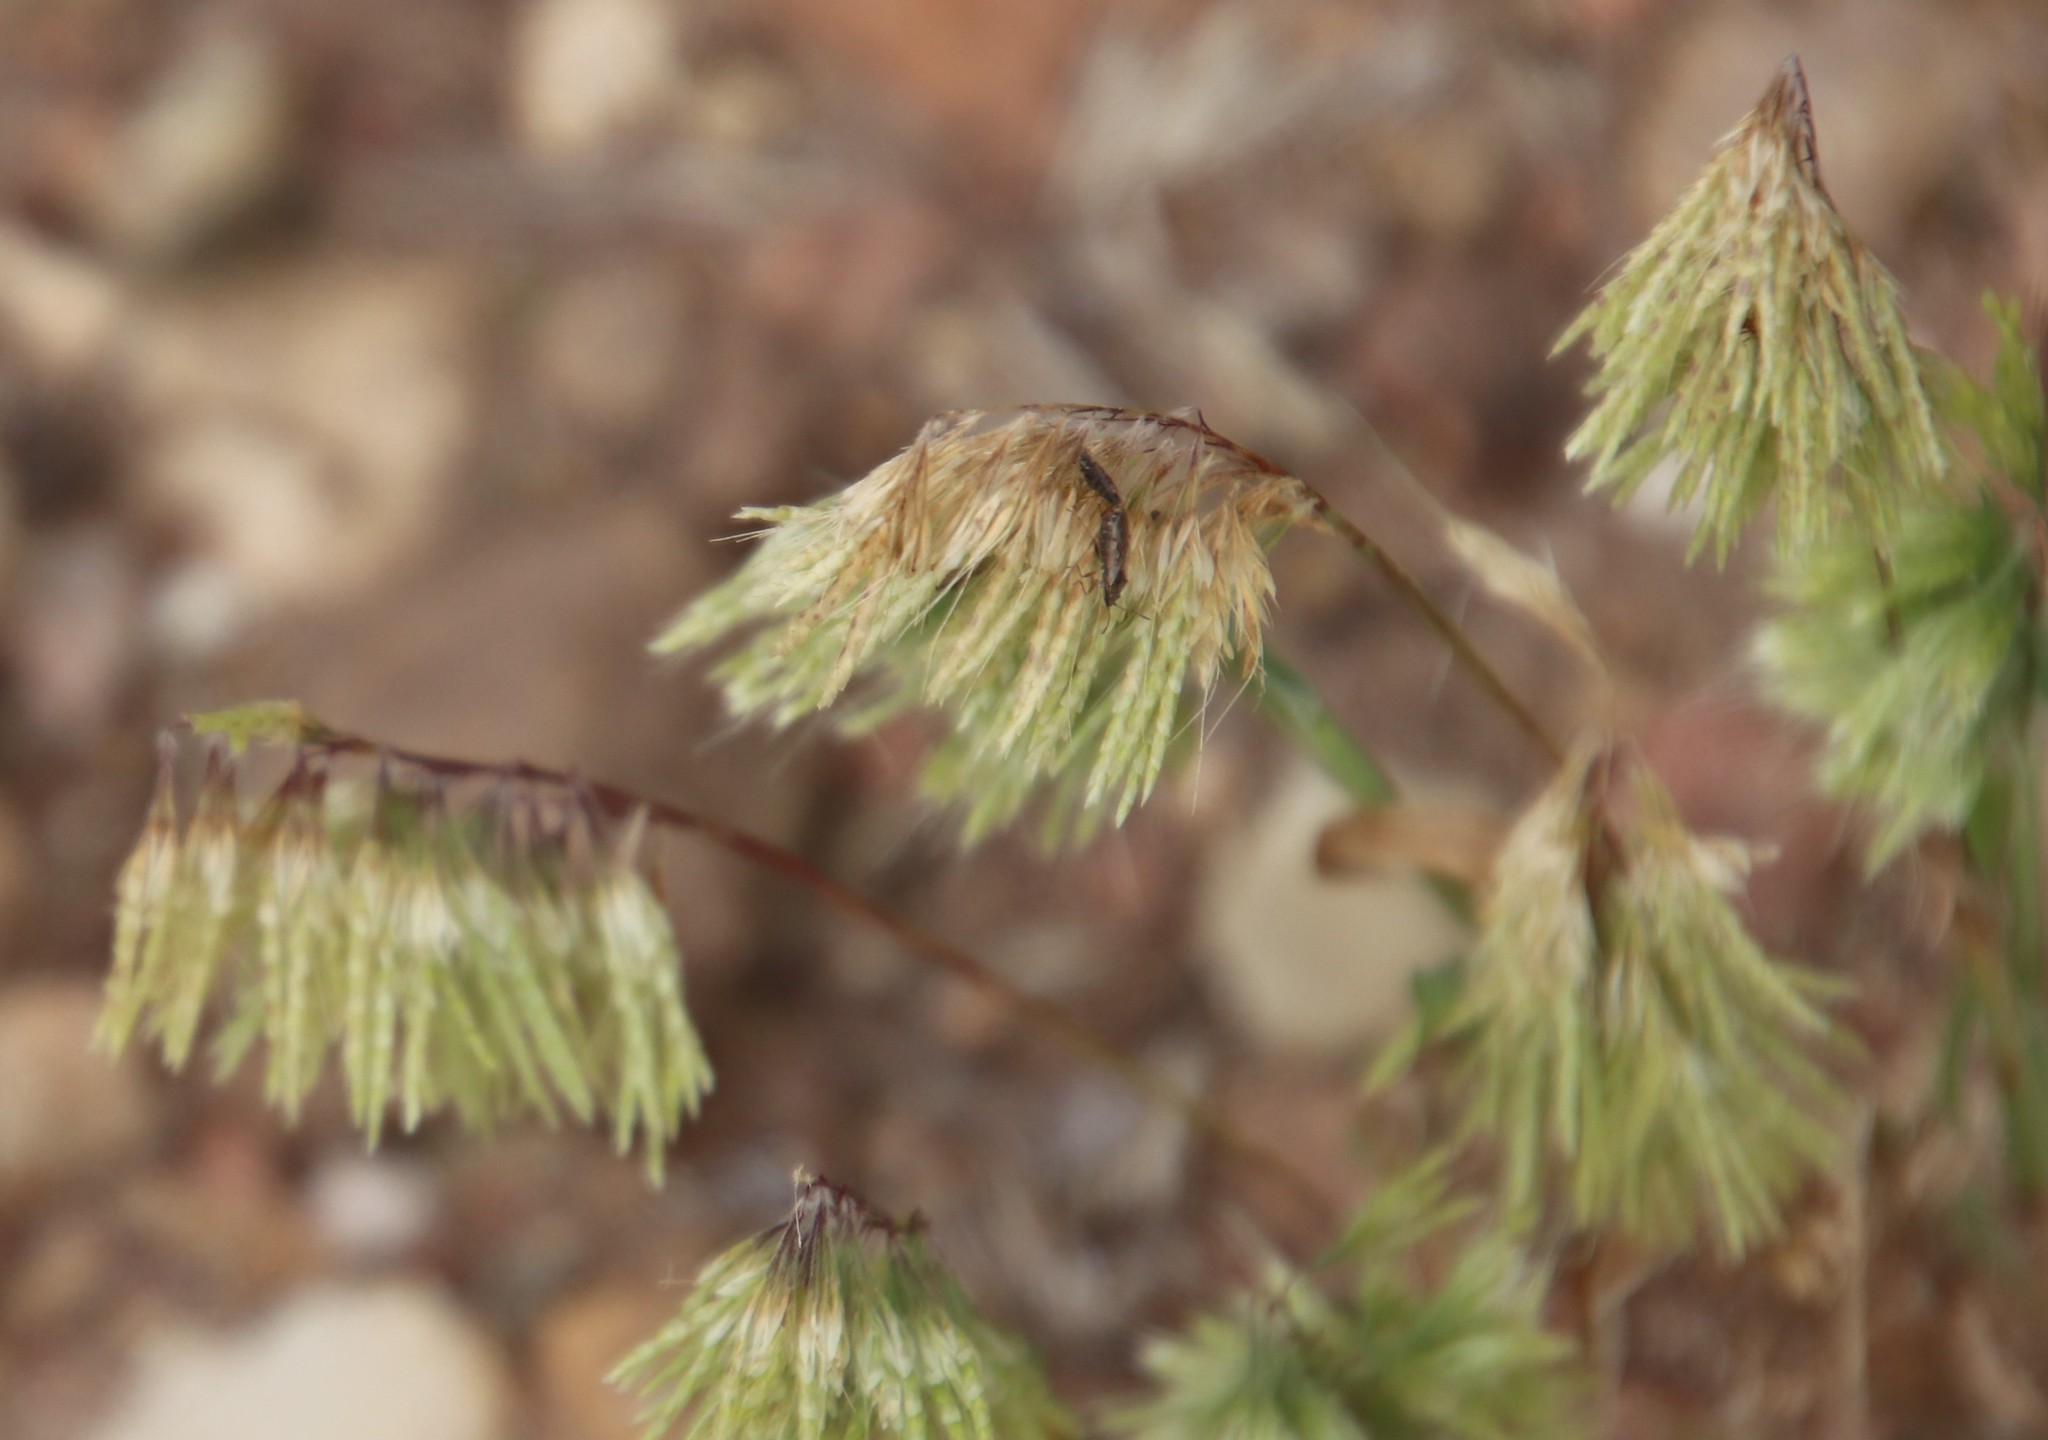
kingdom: Plantae
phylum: Tracheophyta
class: Liliopsida
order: Poales
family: Poaceae
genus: Lamarckia
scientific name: Lamarckia aurea
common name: Golden dog's-tail
